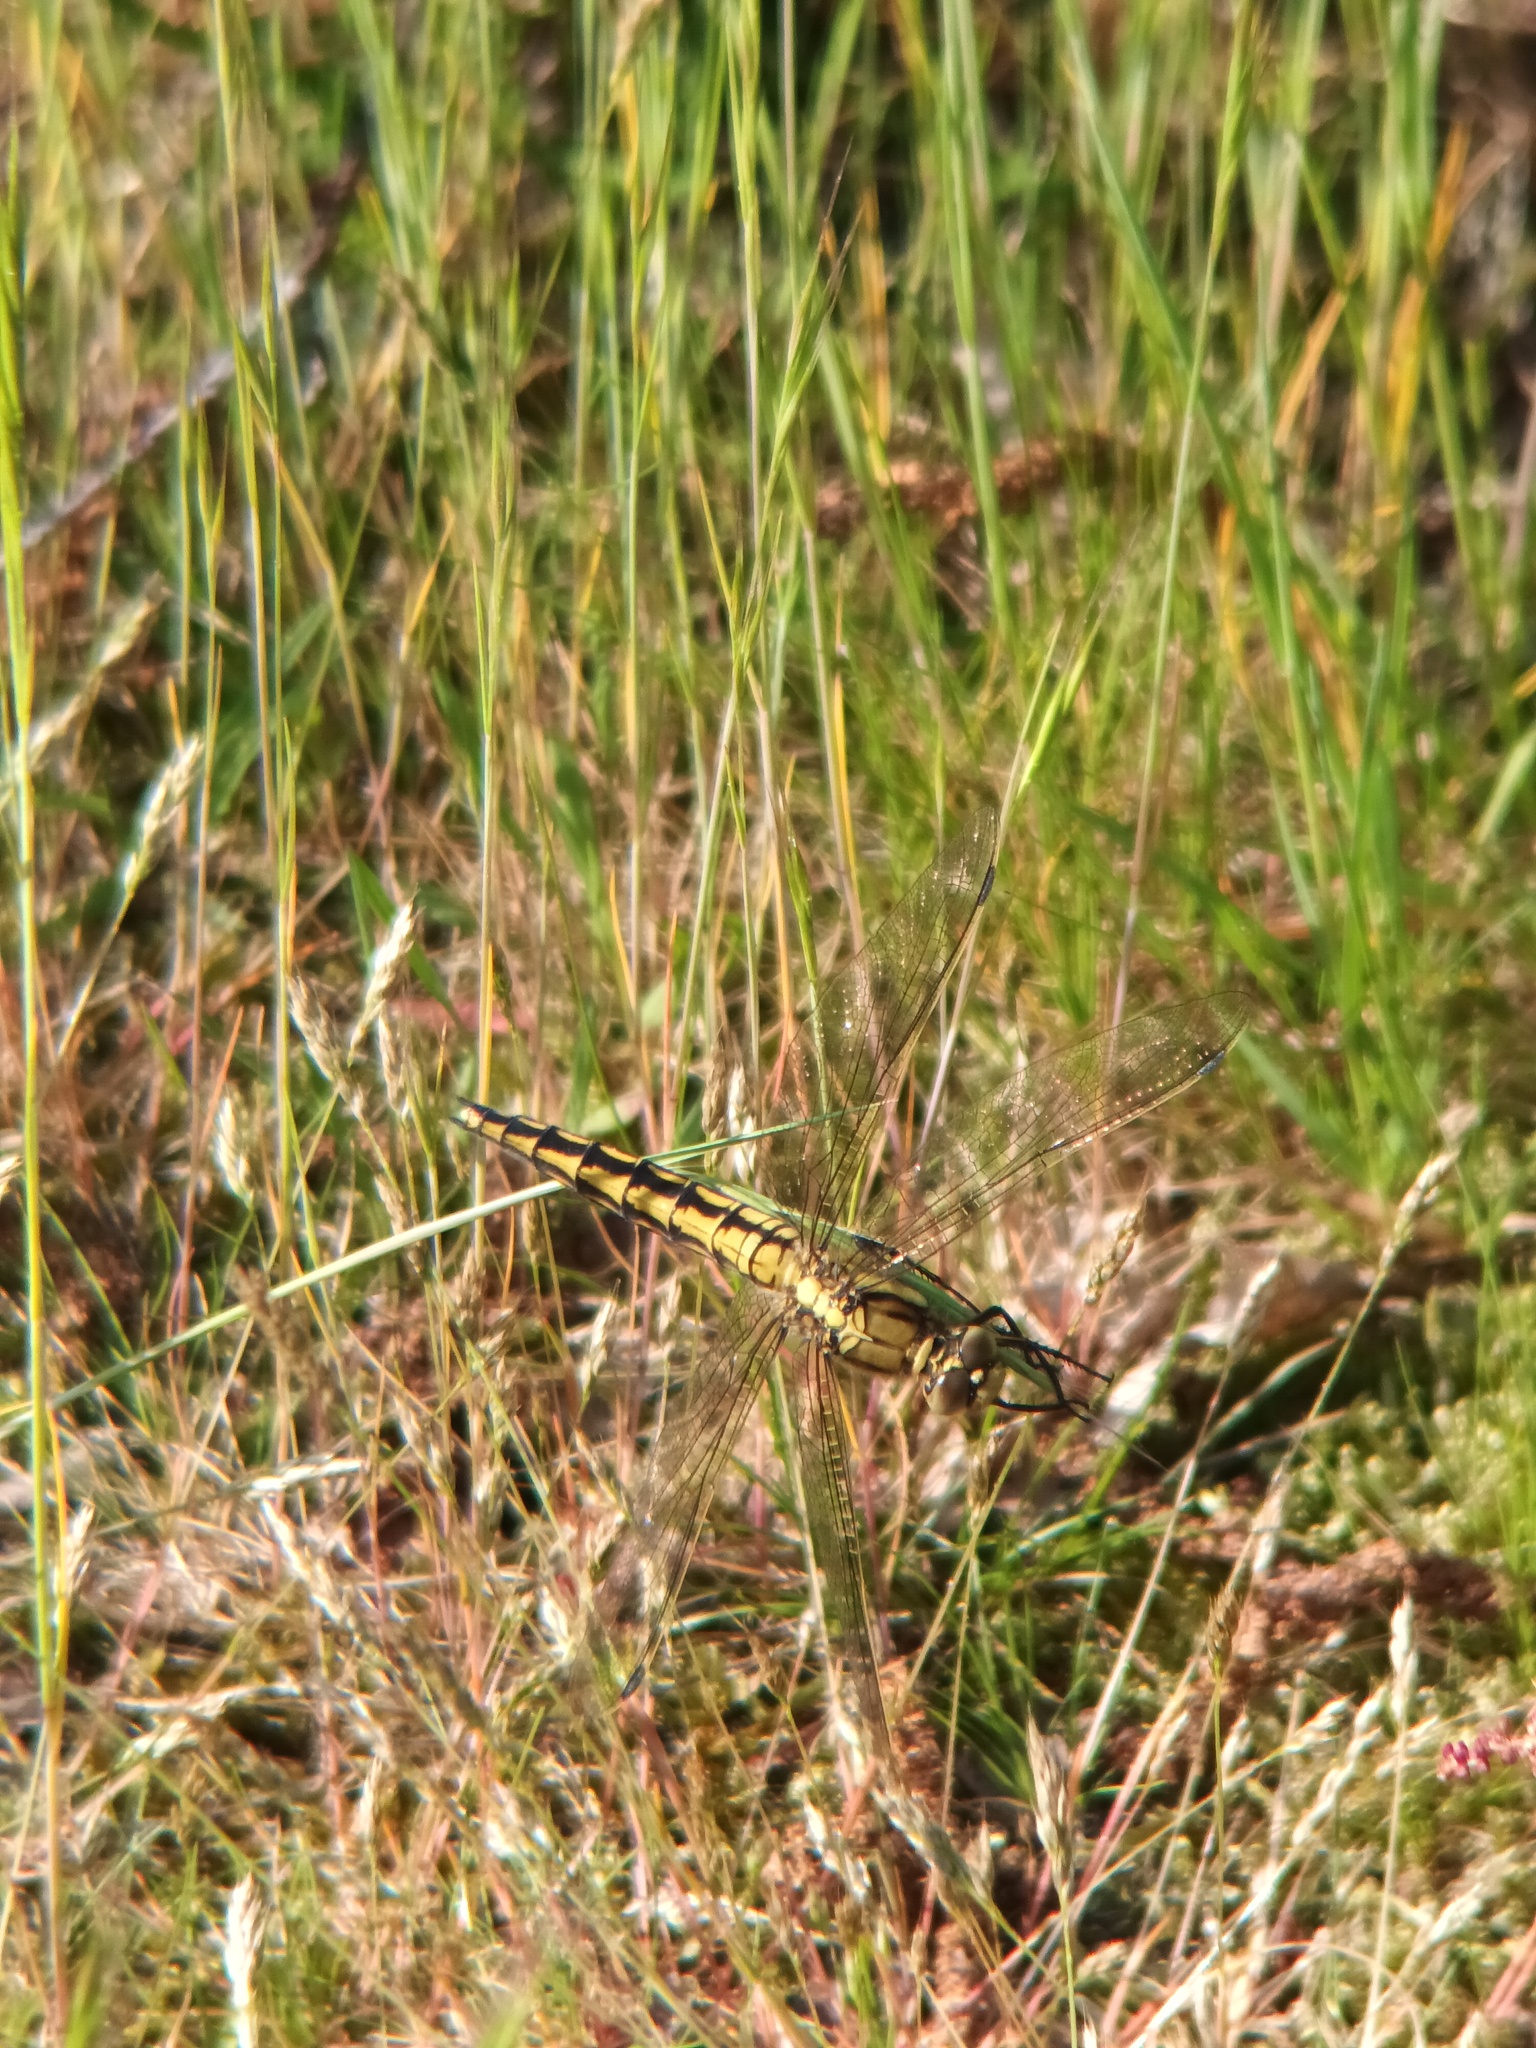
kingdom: Animalia
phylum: Arthropoda
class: Insecta
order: Odonata
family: Libellulidae
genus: Orthetrum
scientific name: Orthetrum cancellatum
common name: Black-tailed skimmer
